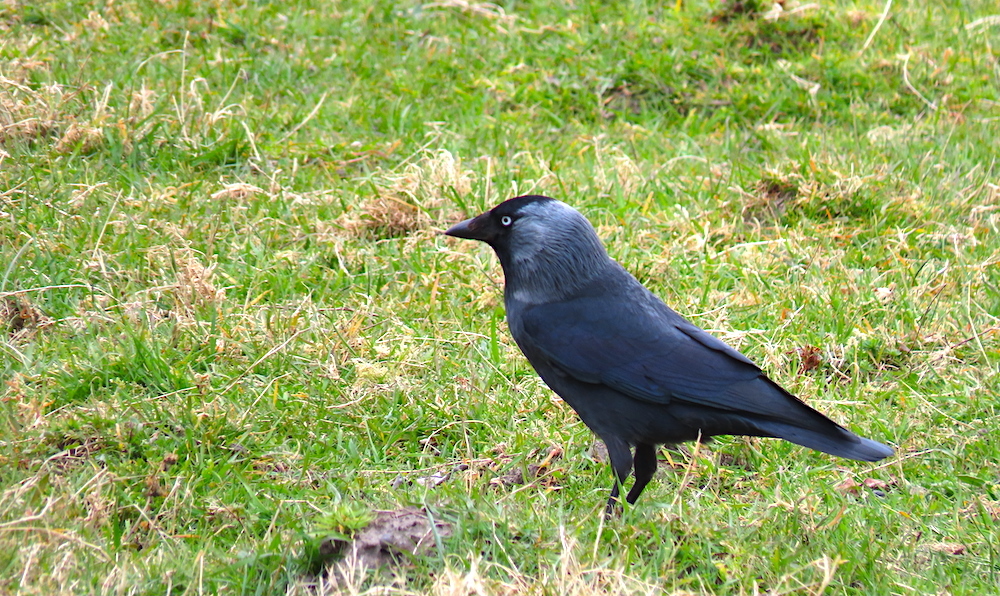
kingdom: Animalia
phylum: Chordata
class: Aves
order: Passeriformes
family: Corvidae
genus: Coloeus
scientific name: Coloeus monedula
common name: Western jackdaw
